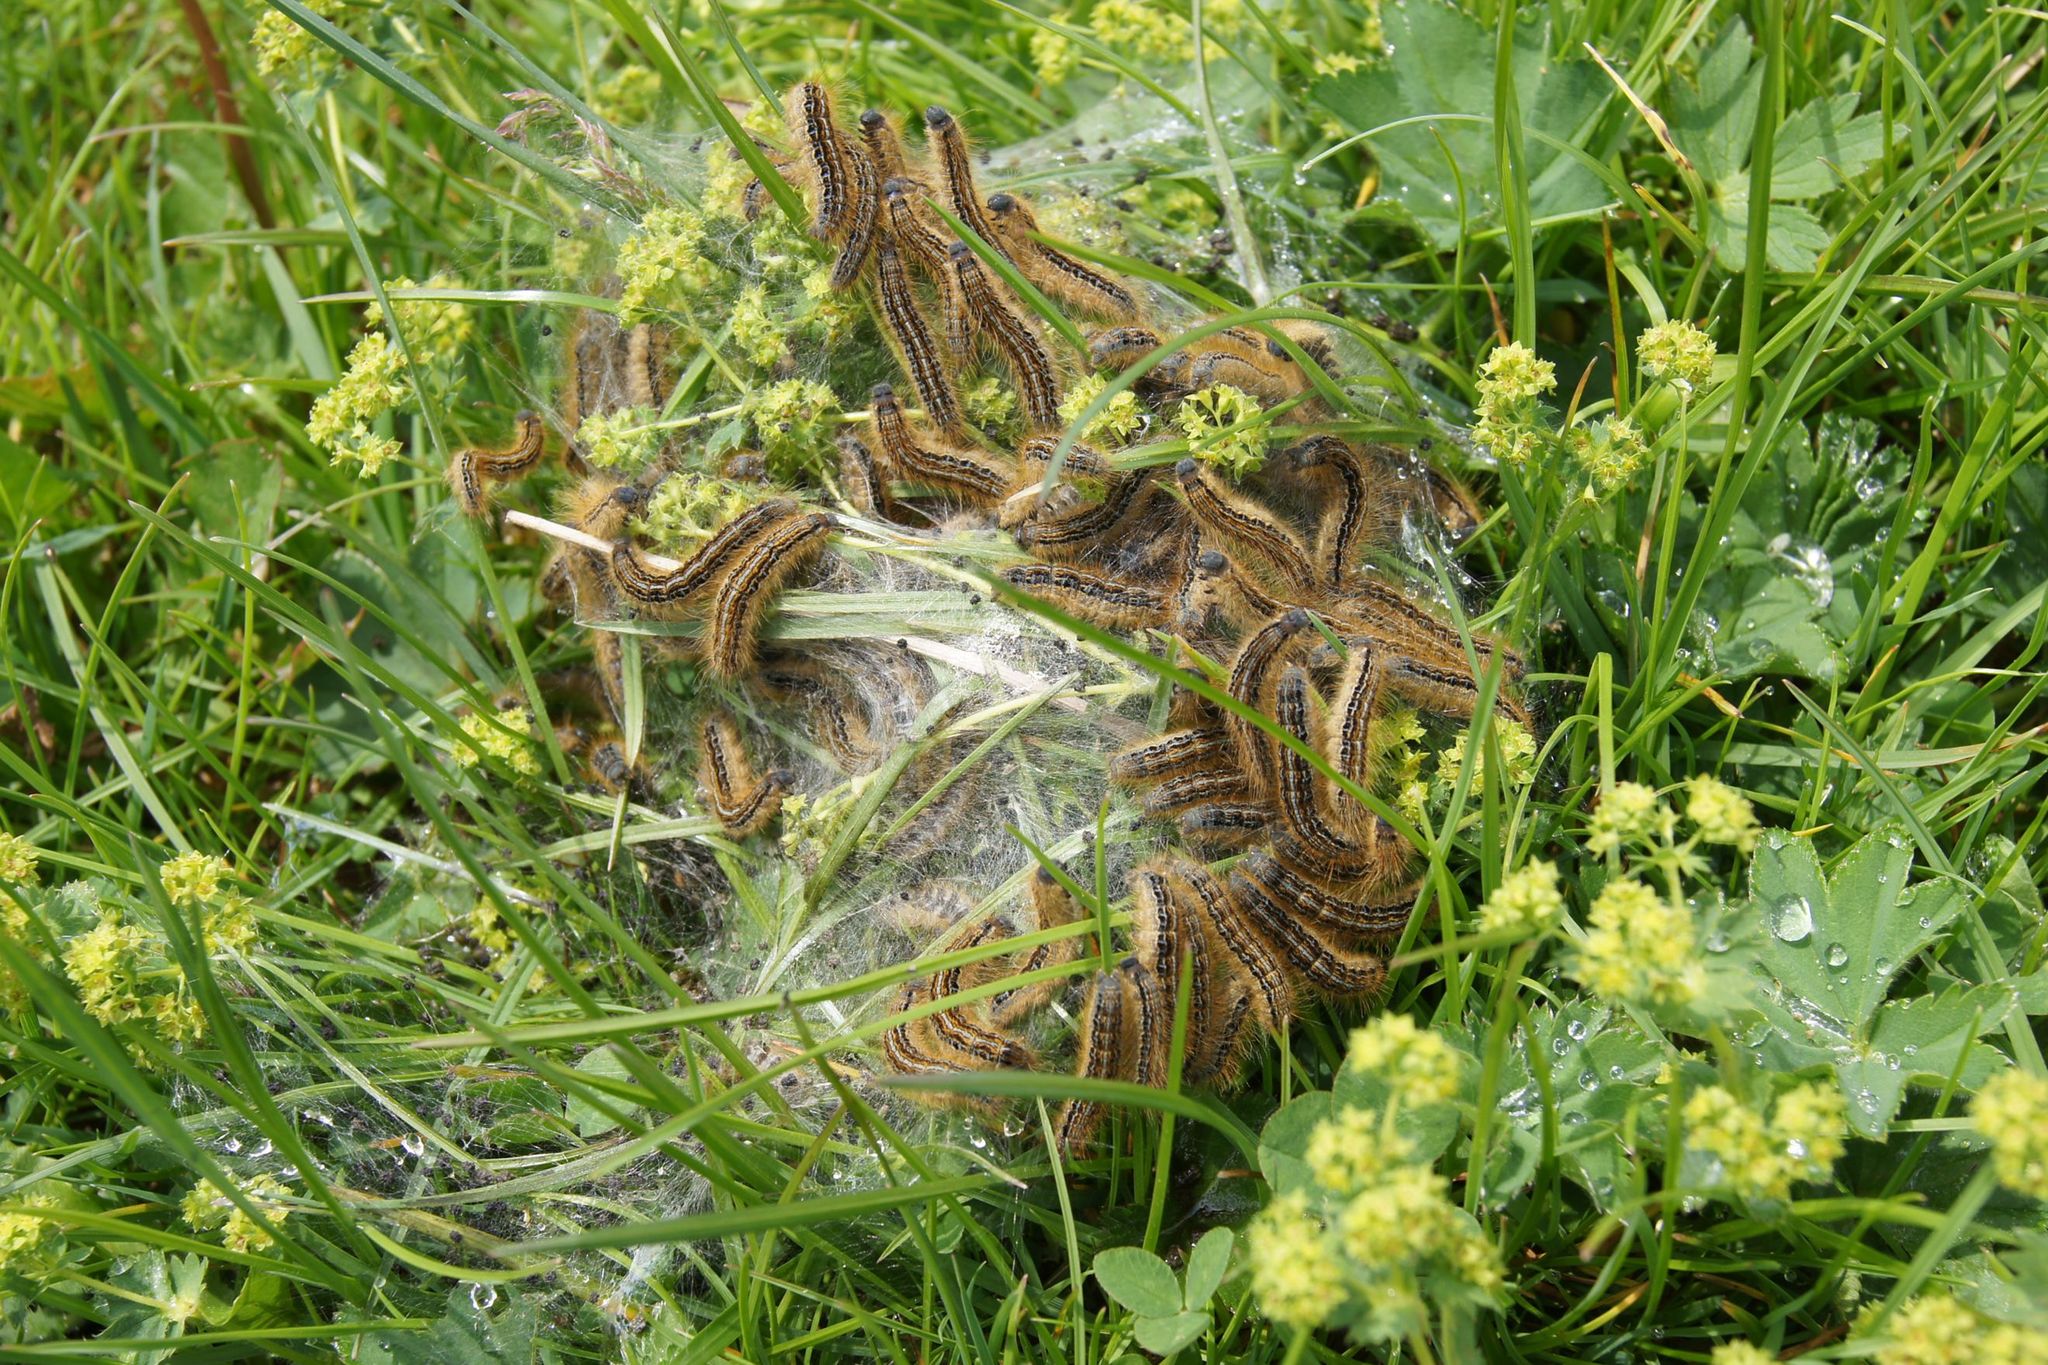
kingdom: Animalia
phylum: Arthropoda
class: Insecta
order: Lepidoptera
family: Lasiocampidae
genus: Malacosoma
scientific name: Malacosoma castrense
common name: Ground lackey
